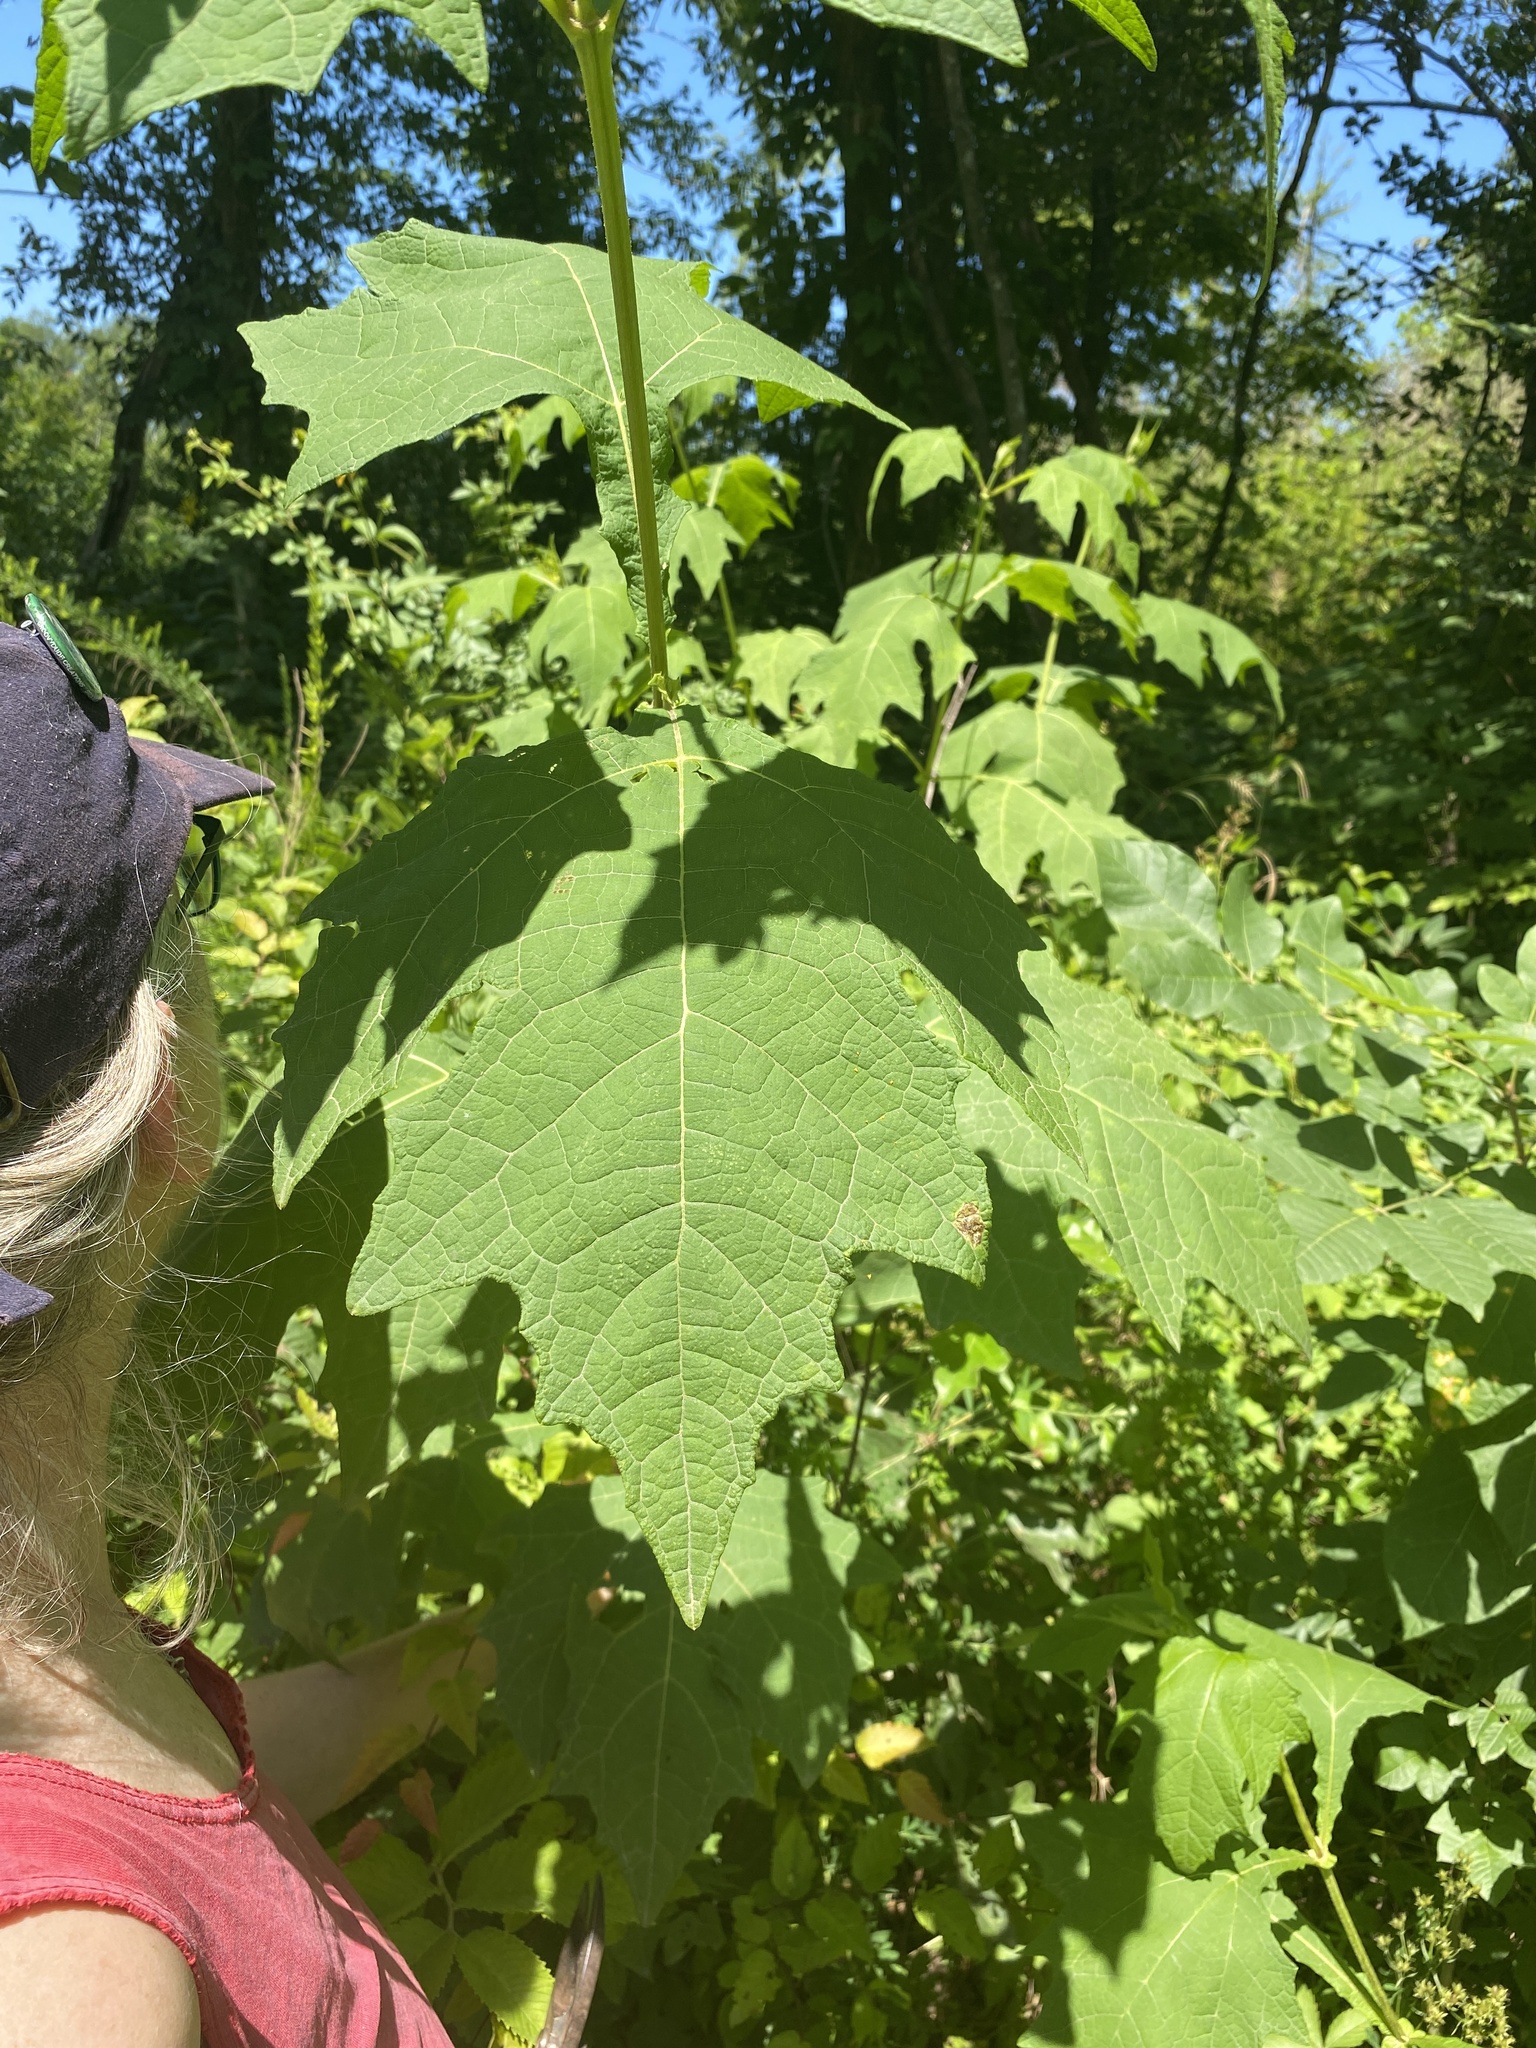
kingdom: Plantae
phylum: Tracheophyta
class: Magnoliopsida
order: Asterales
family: Asteraceae
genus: Smallanthus
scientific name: Smallanthus uvedalia
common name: Bear's-foot
